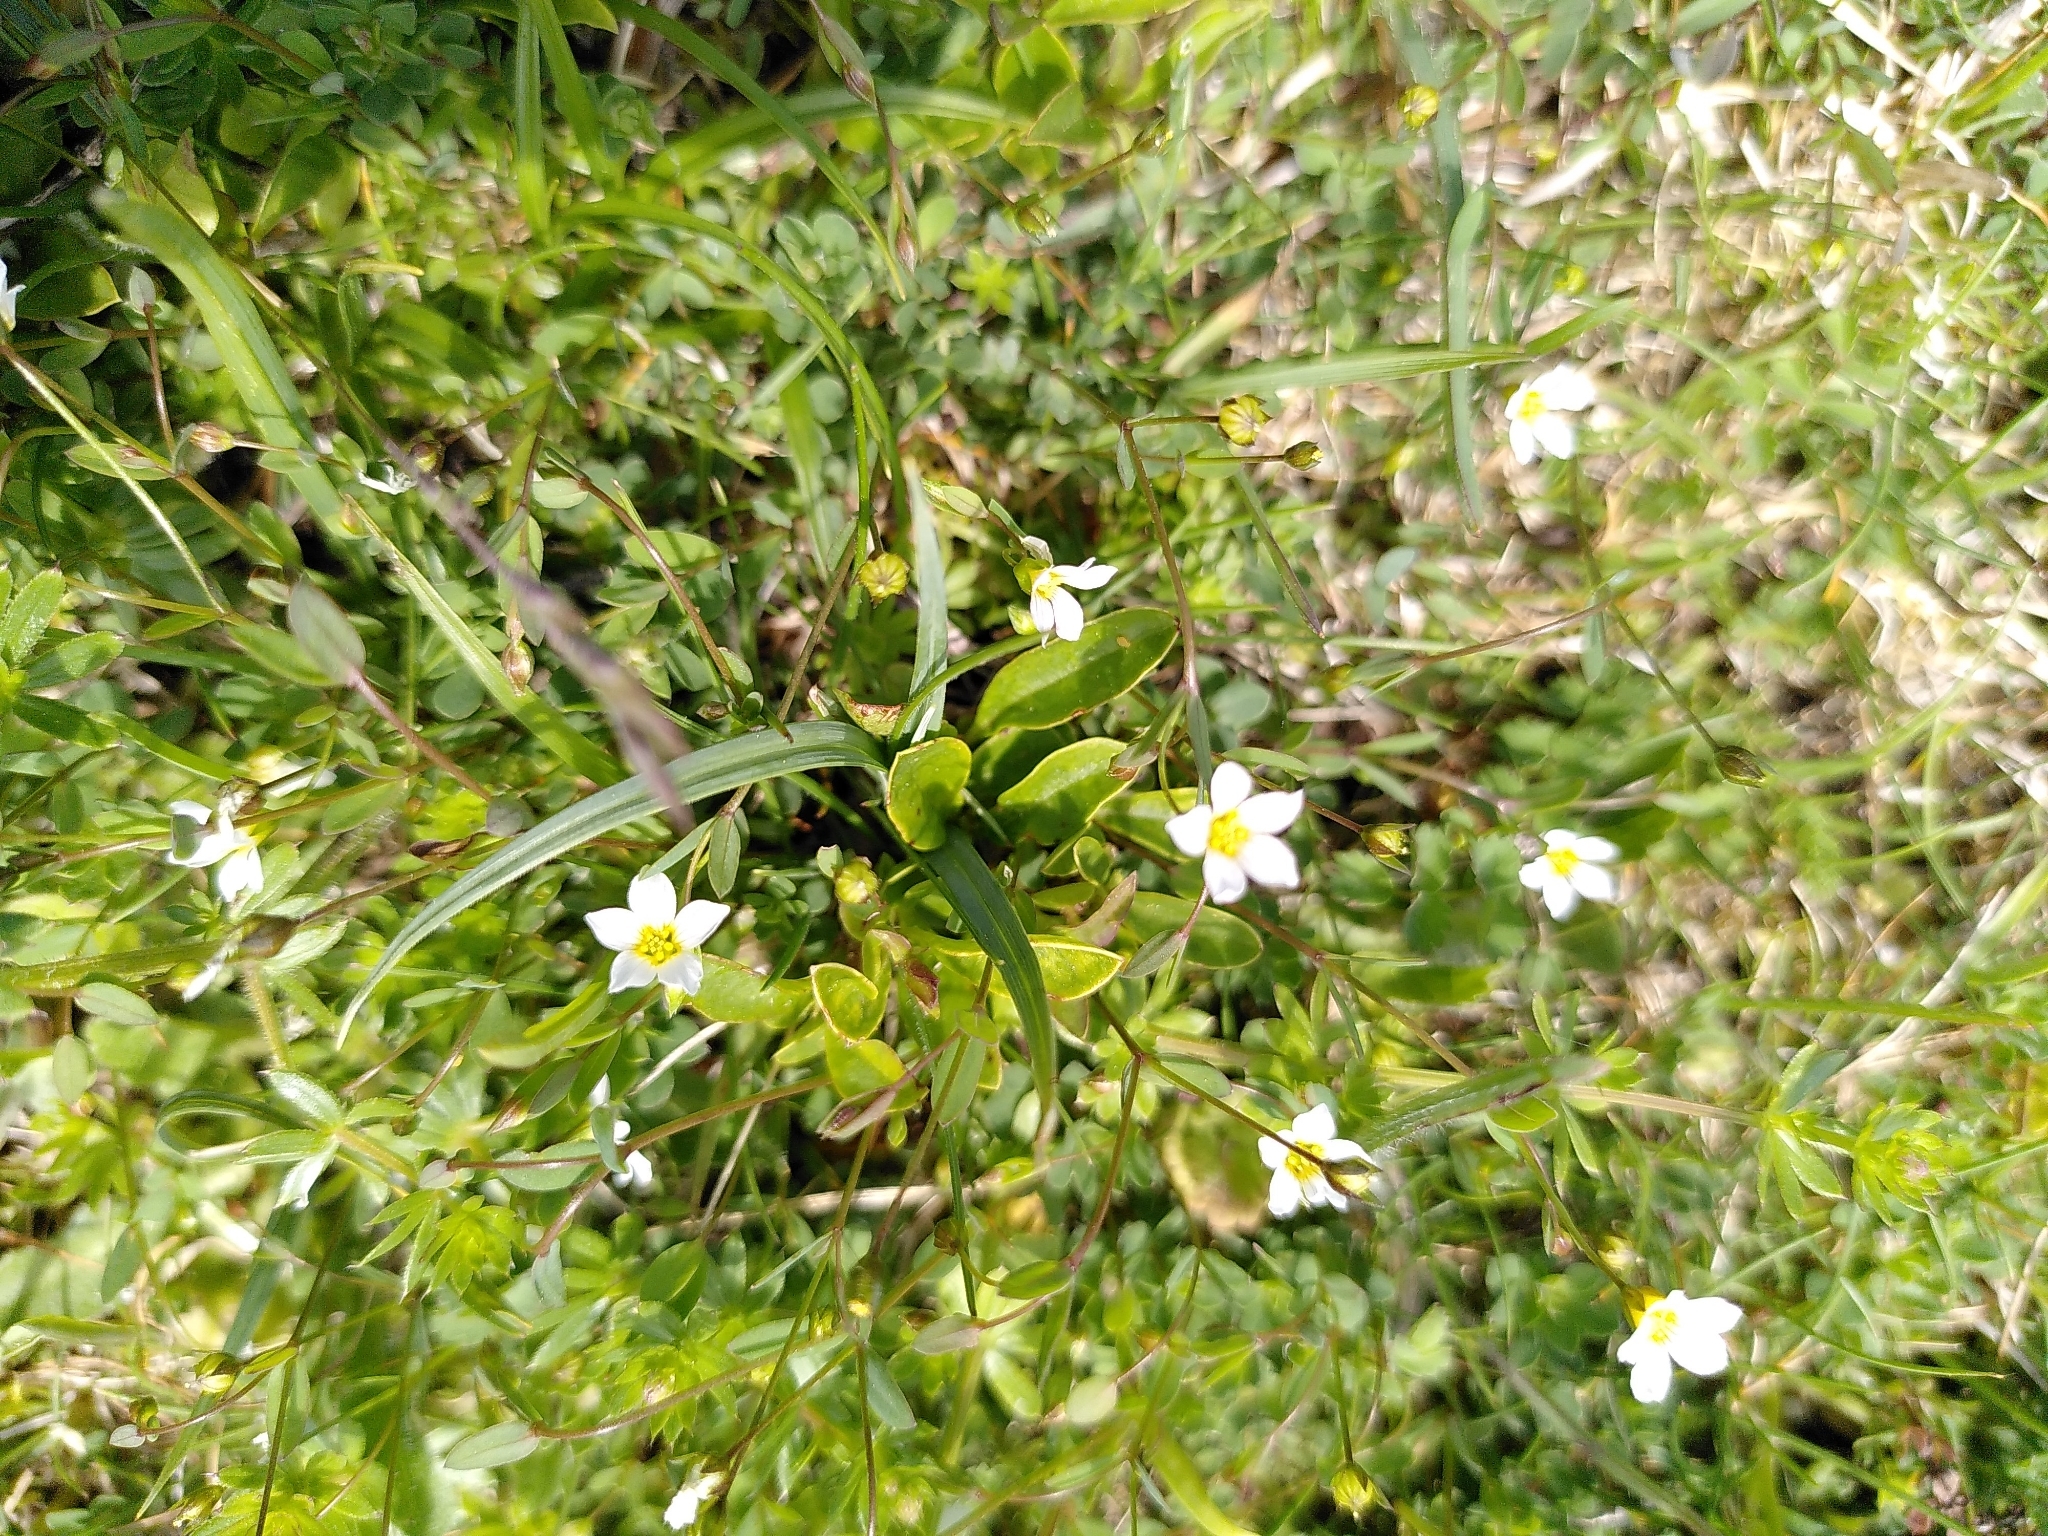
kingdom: Plantae
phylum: Tracheophyta
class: Magnoliopsida
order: Malpighiales
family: Linaceae
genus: Linum
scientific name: Linum catharticum
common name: Fairy flax
